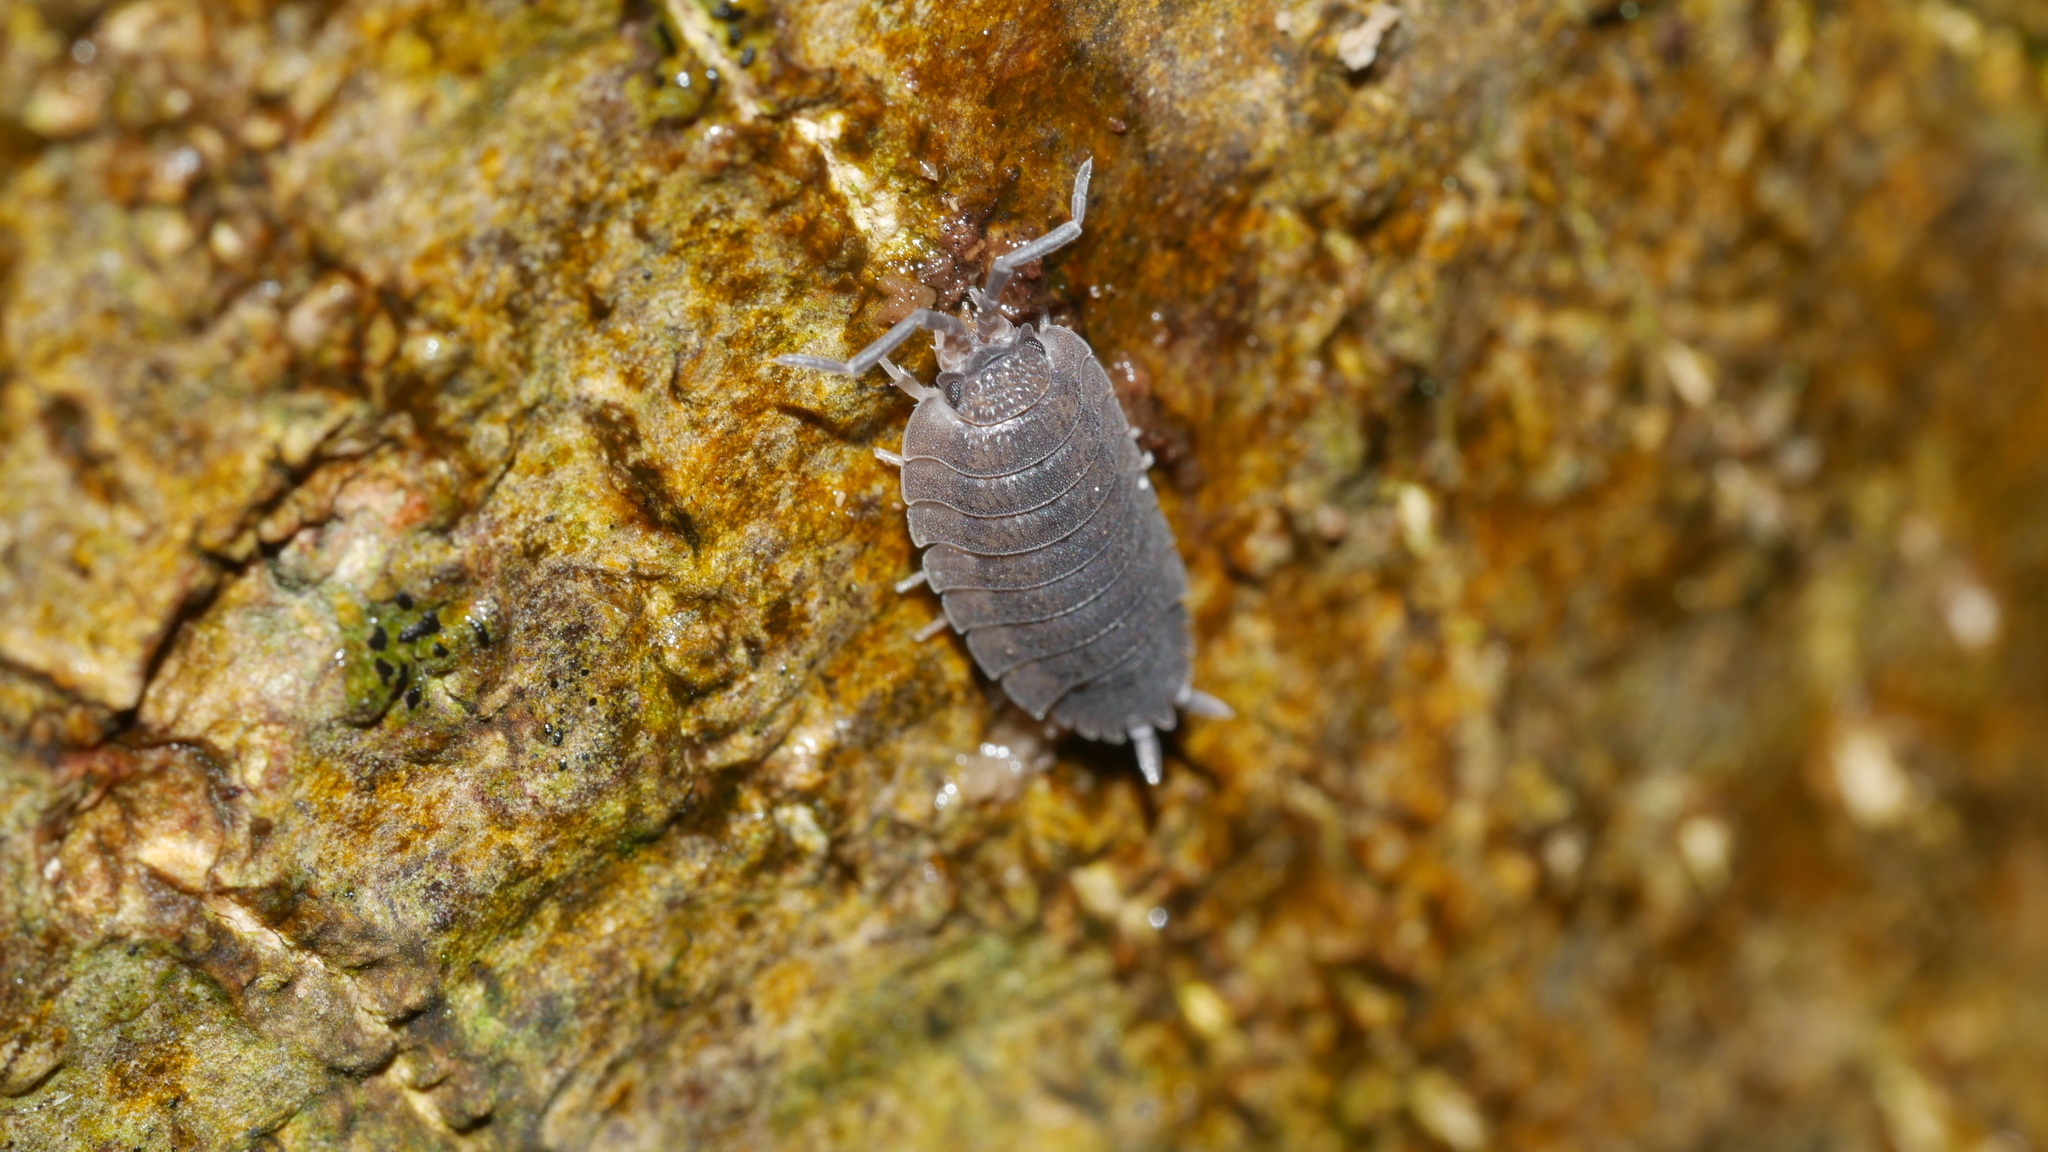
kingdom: Animalia
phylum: Arthropoda
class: Malacostraca
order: Isopoda
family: Porcellionidae
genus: Porcellio
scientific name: Porcellio scaber
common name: Common rough woodlouse
